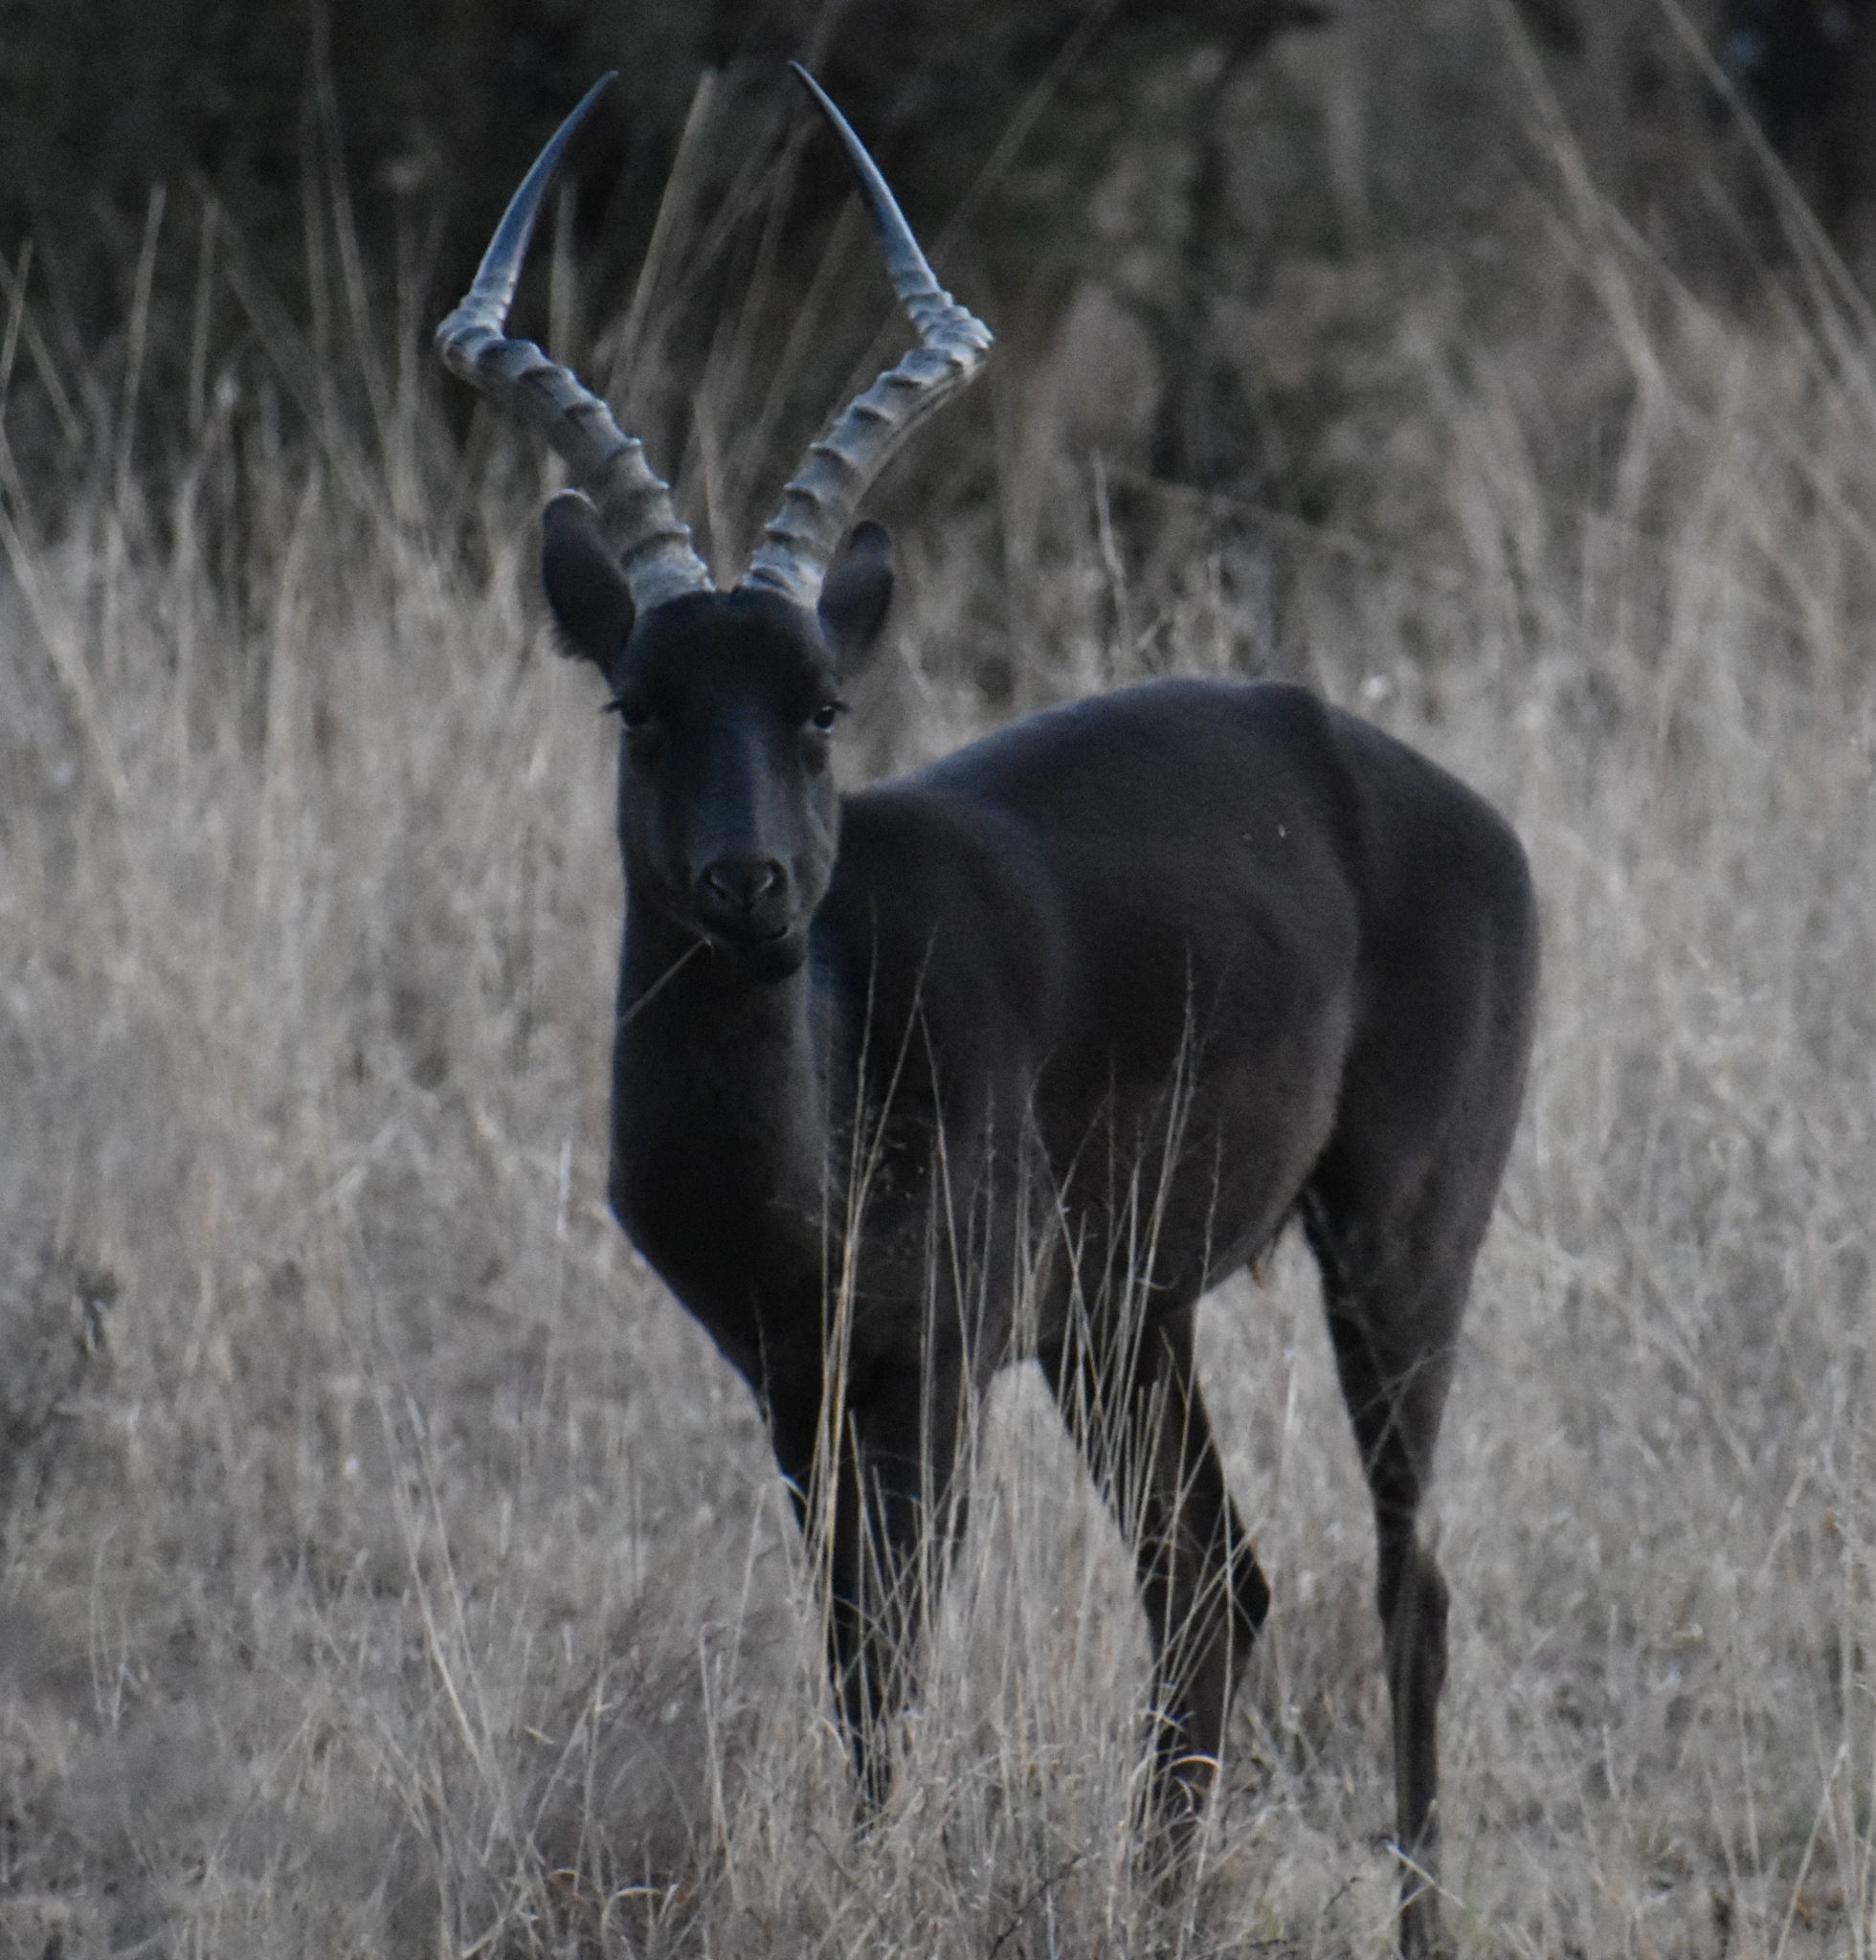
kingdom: Animalia
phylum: Chordata
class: Mammalia
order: Artiodactyla
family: Bovidae
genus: Aepyceros
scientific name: Aepyceros melampus
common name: Impala
